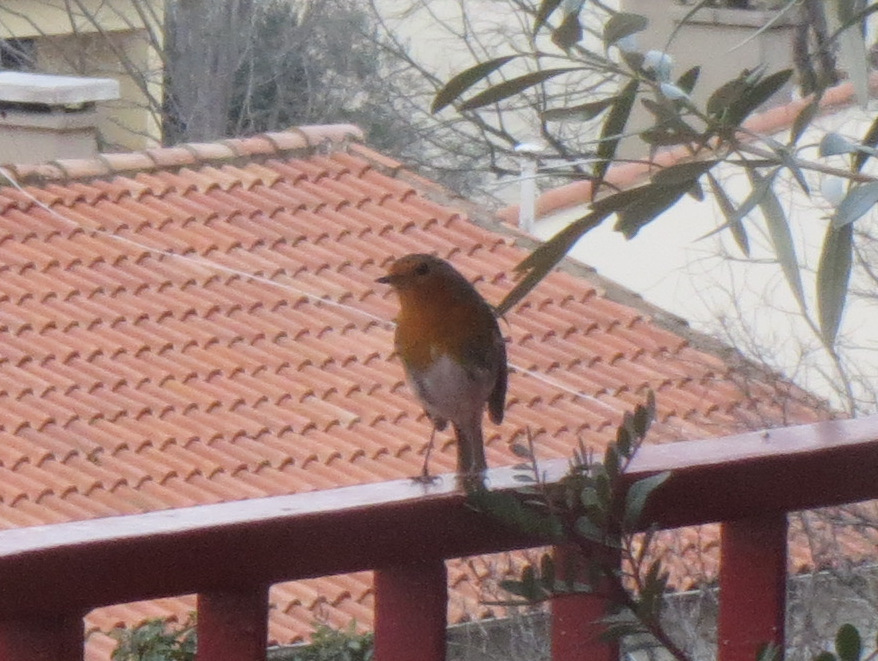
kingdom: Animalia
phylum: Chordata
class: Aves
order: Passeriformes
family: Muscicapidae
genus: Erithacus
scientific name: Erithacus rubecula
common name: European robin
